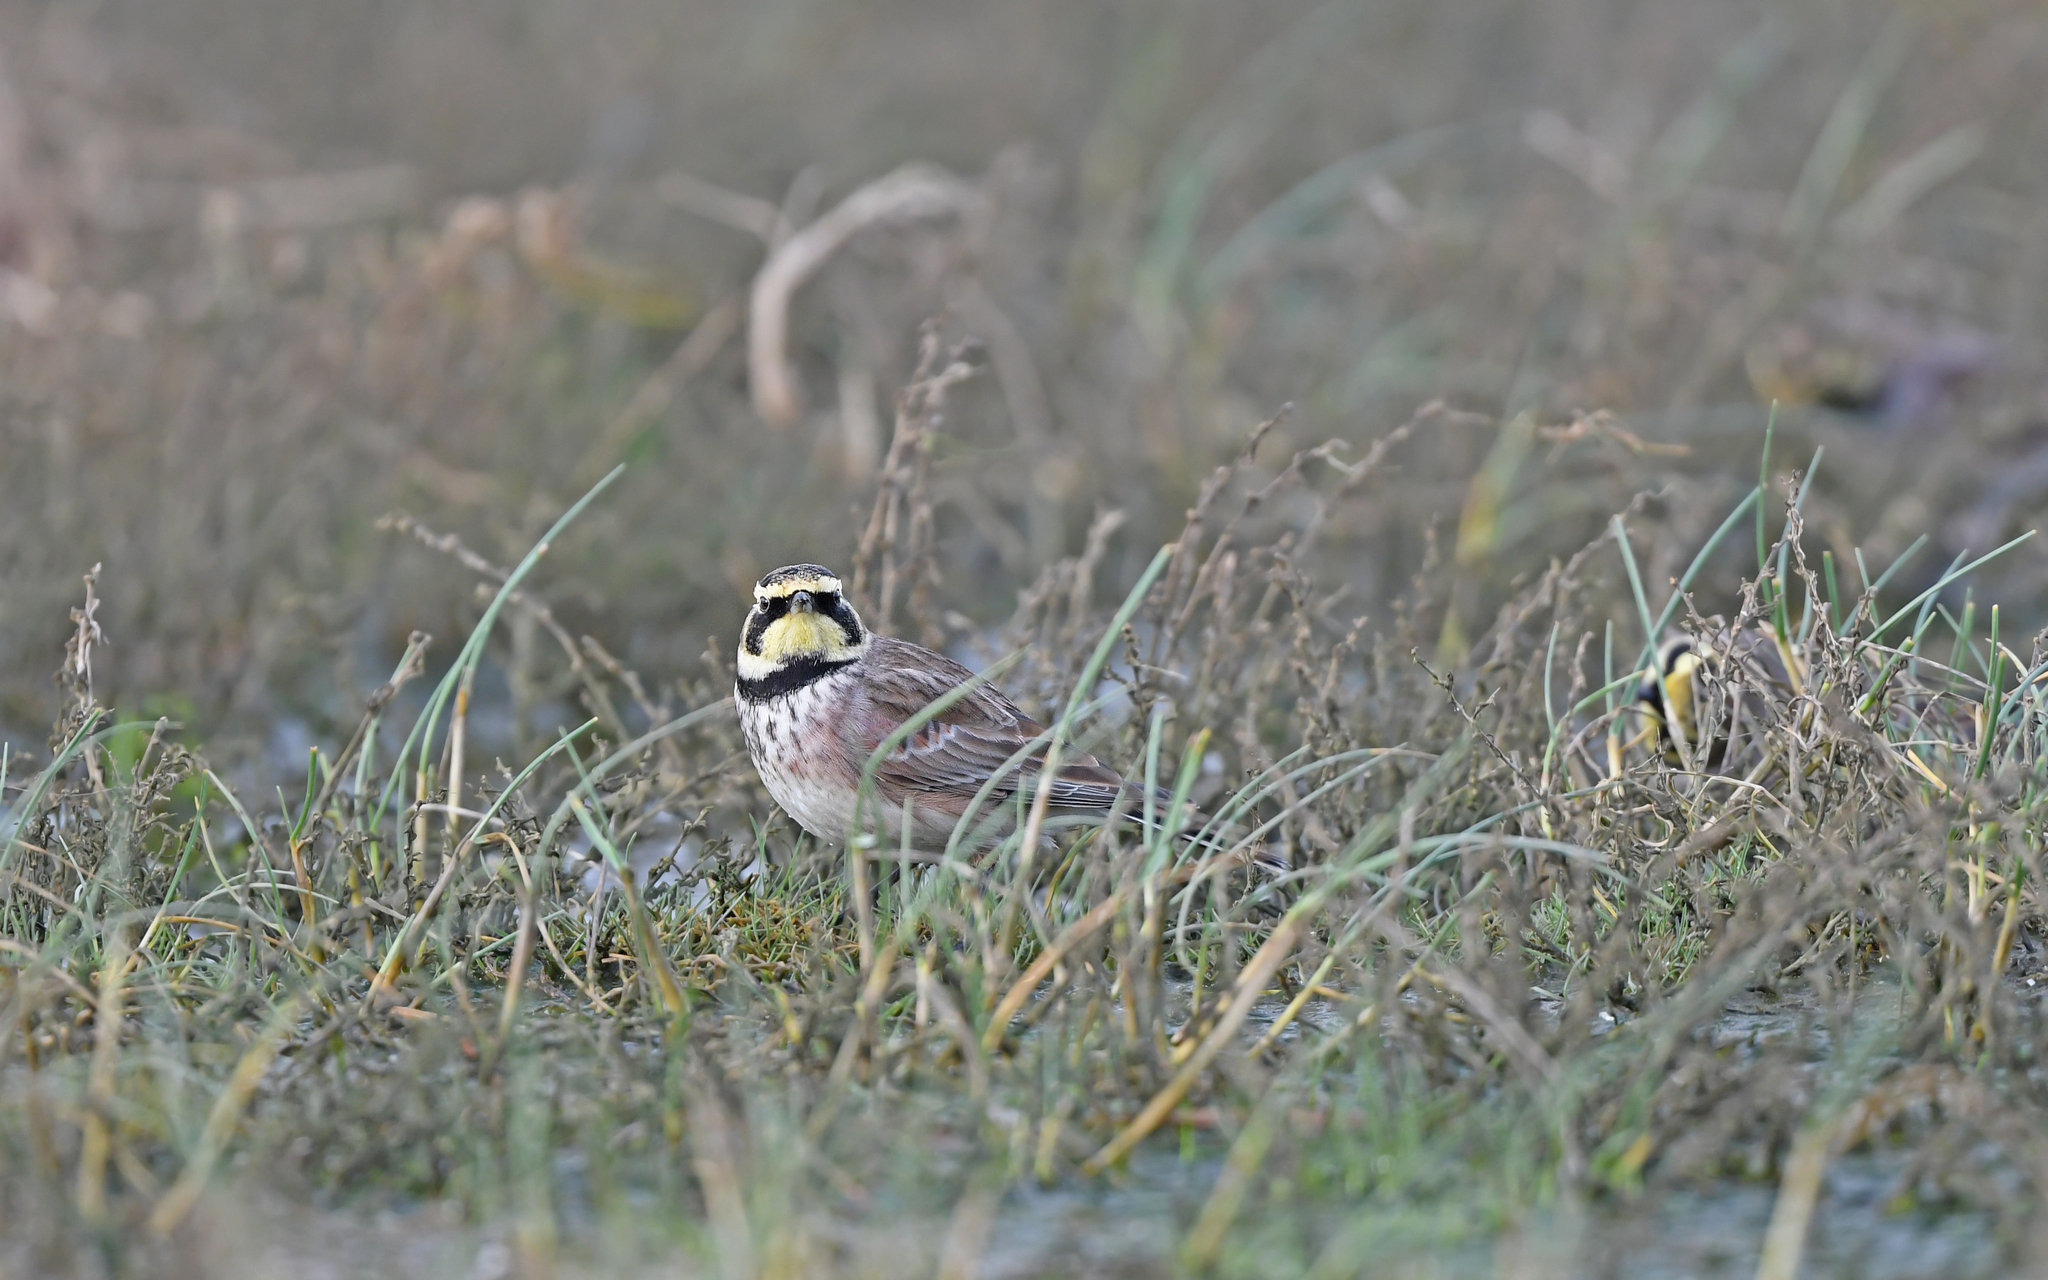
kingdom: Animalia
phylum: Chordata
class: Aves
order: Passeriformes
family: Alaudidae
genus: Eremophila
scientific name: Eremophila alpestris
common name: Horned lark
